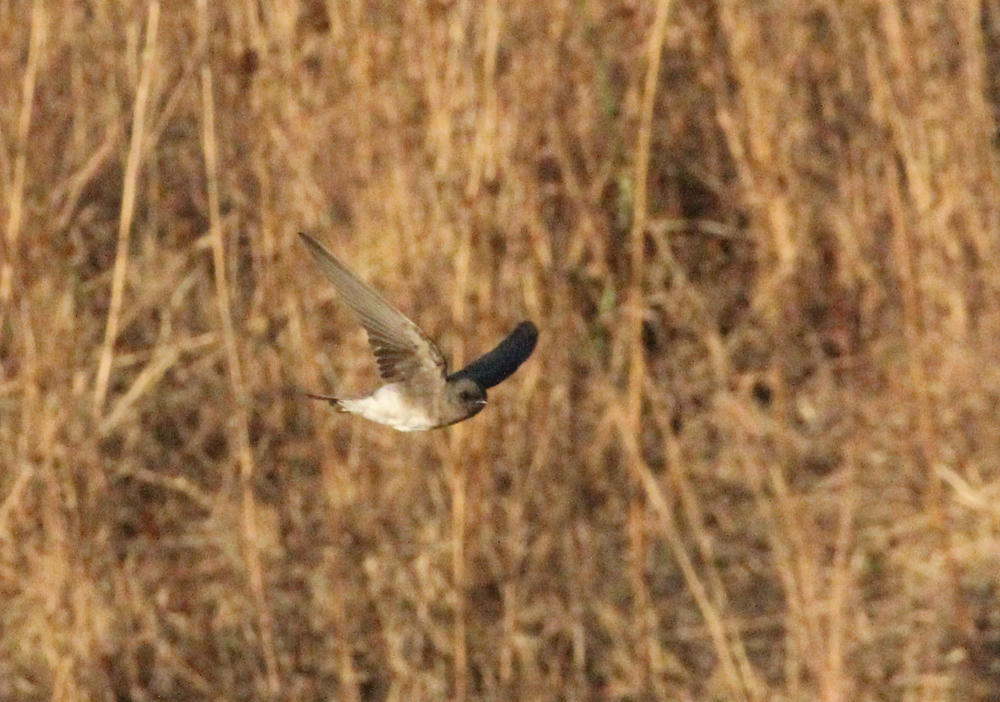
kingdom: Animalia
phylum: Chordata
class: Aves
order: Passeriformes
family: Hirundinidae
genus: Riparia
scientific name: Riparia paludicola
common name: Brown-throated martin
